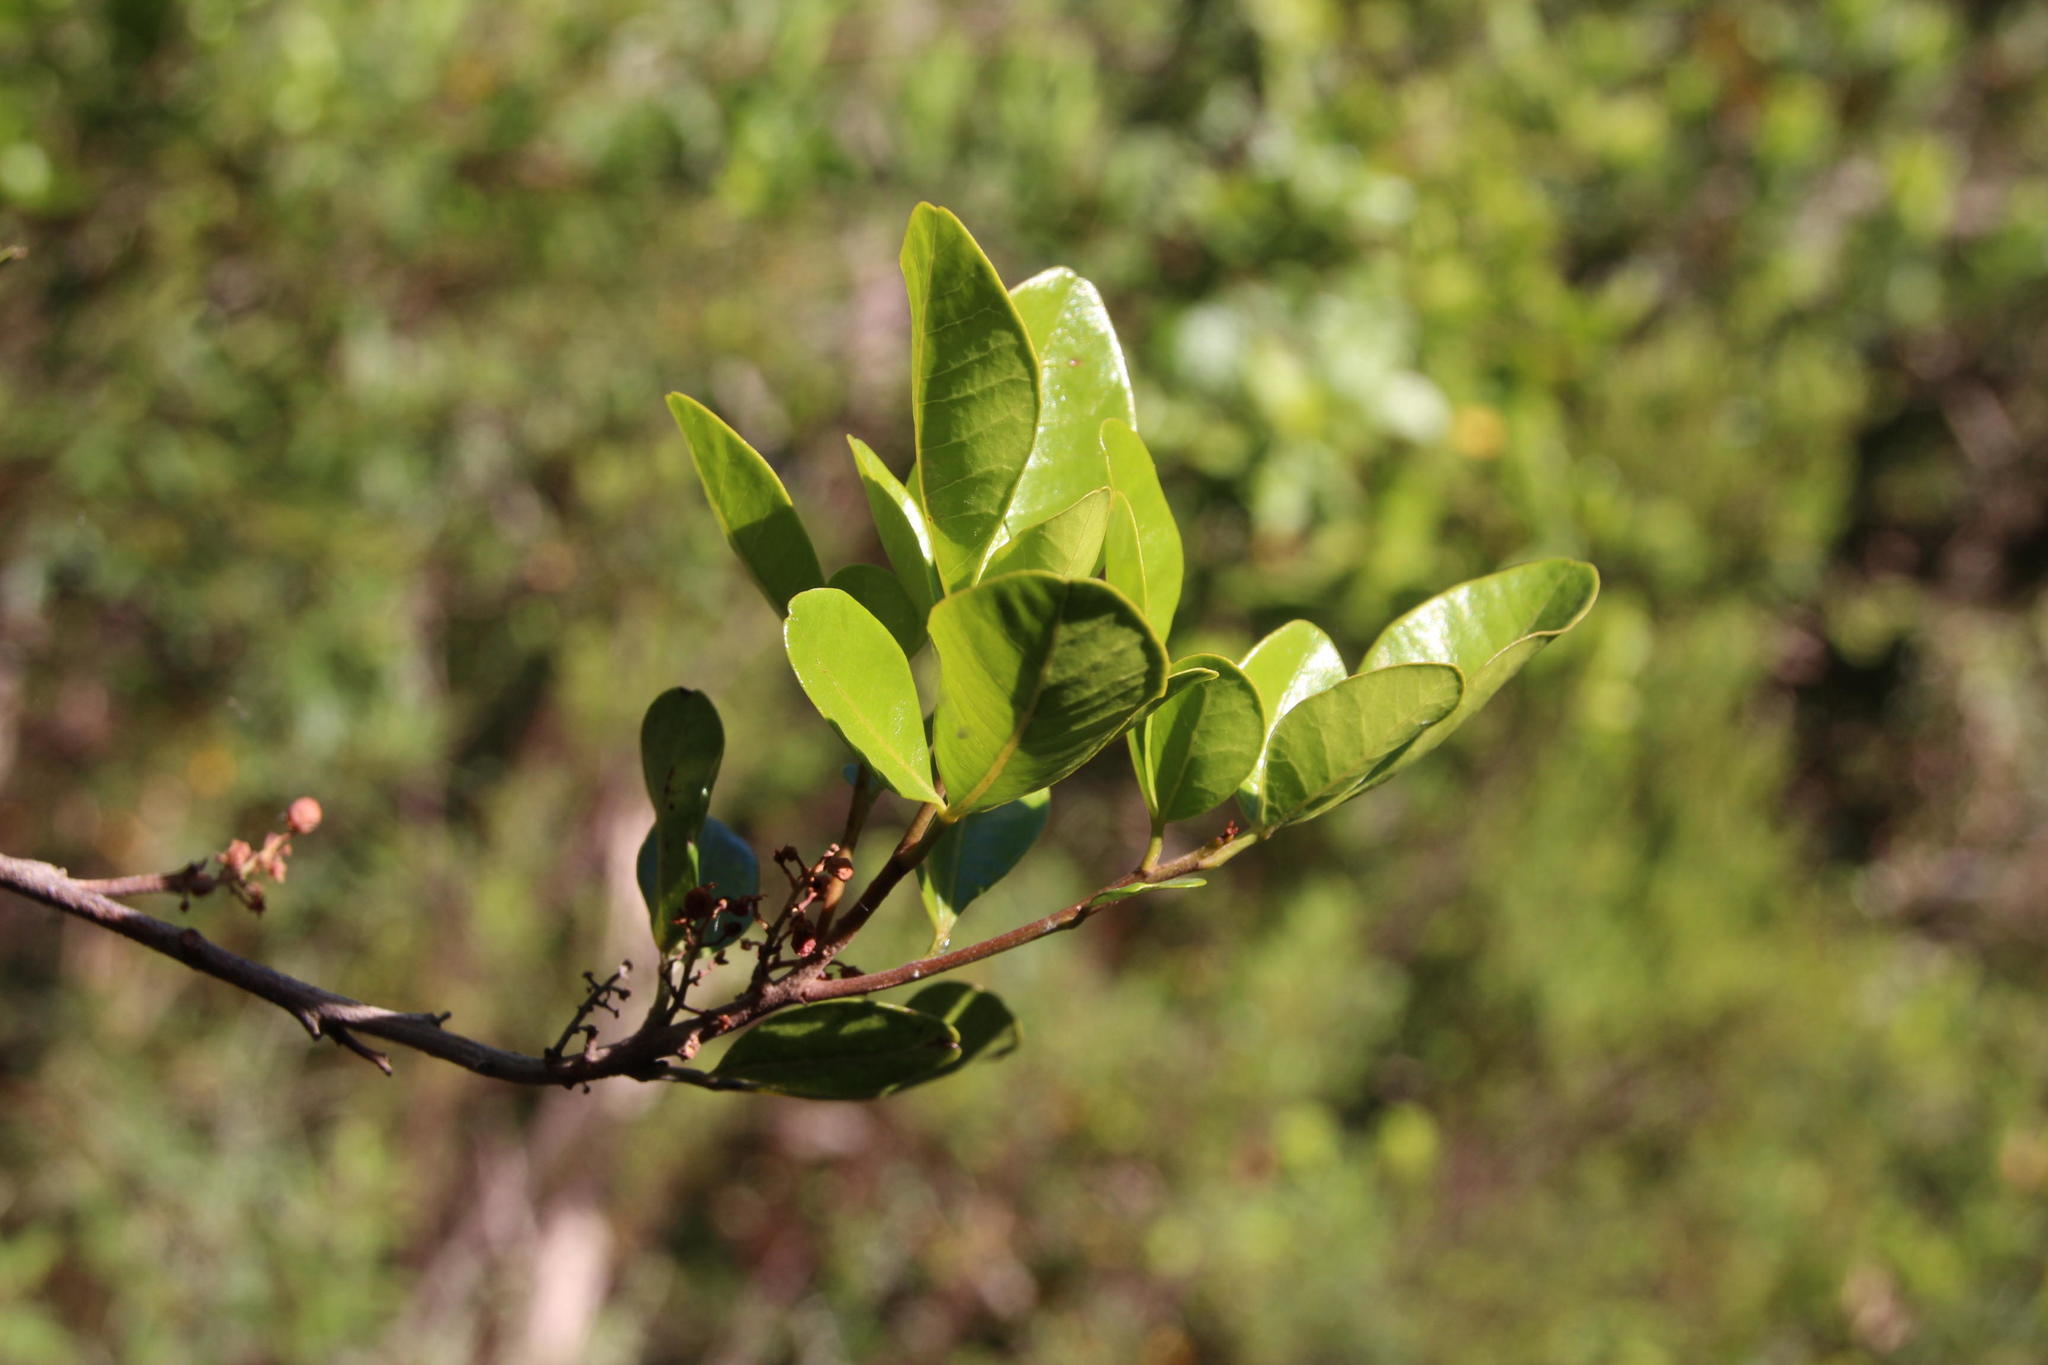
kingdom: Plantae
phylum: Tracheophyta
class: Magnoliopsida
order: Sapindales
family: Anacardiaceae
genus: Searsia
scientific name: Searsia lucida
